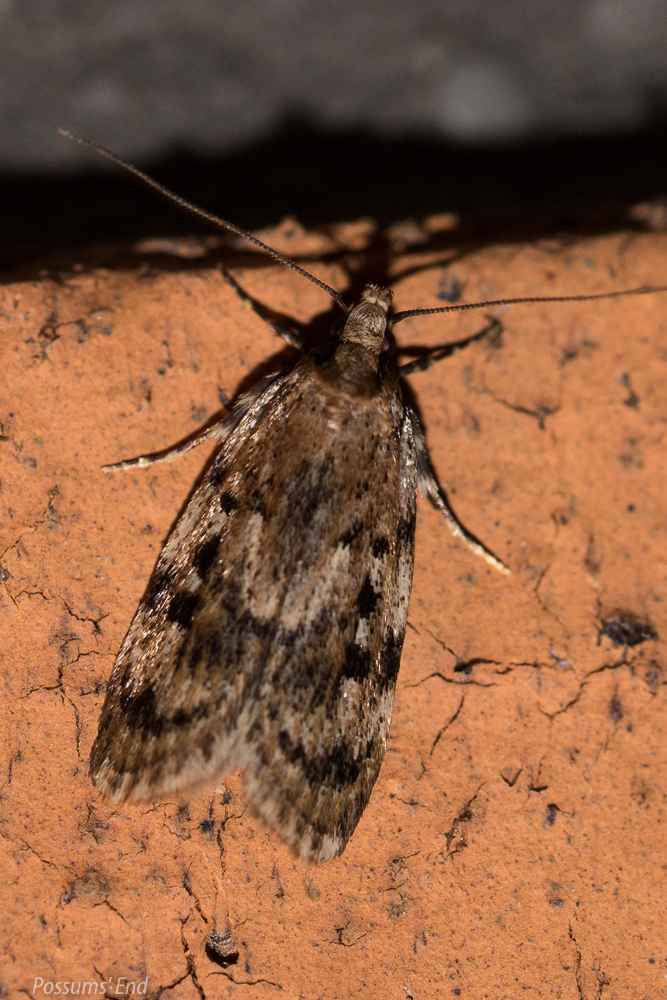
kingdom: Animalia
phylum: Arthropoda
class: Insecta
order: Lepidoptera
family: Oecophoridae
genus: Barea
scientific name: Barea exarcha
